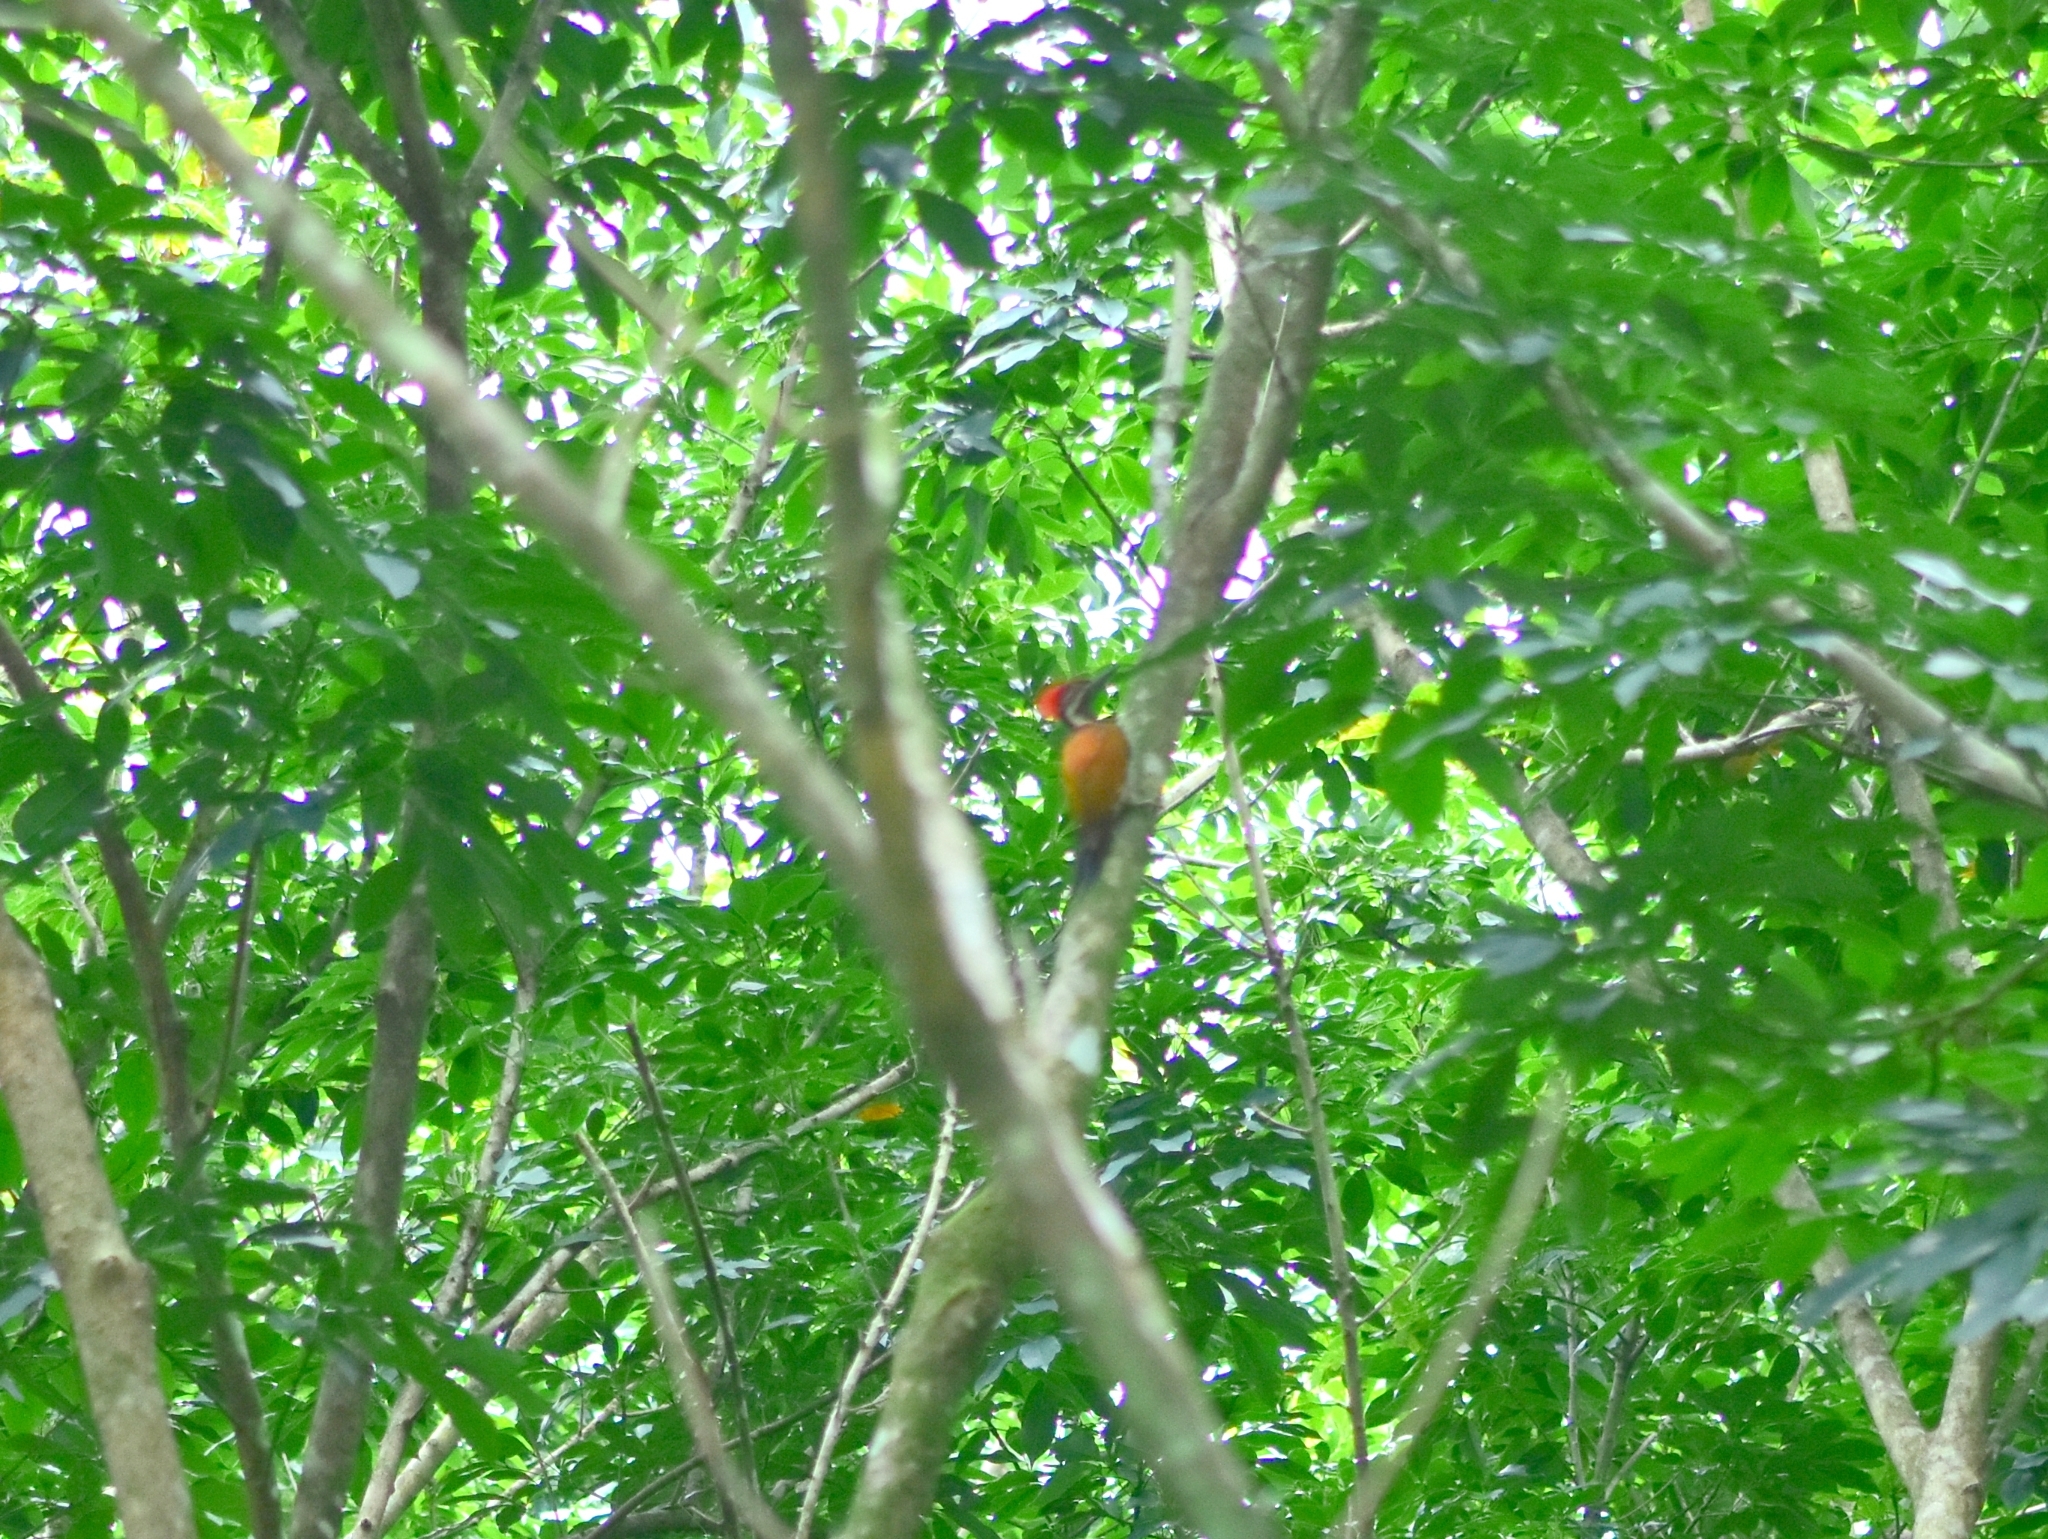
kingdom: Animalia
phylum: Chordata
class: Aves
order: Piciformes
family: Picidae
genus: Dinopium
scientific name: Dinopium benghalense
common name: Black-rumped flameback
